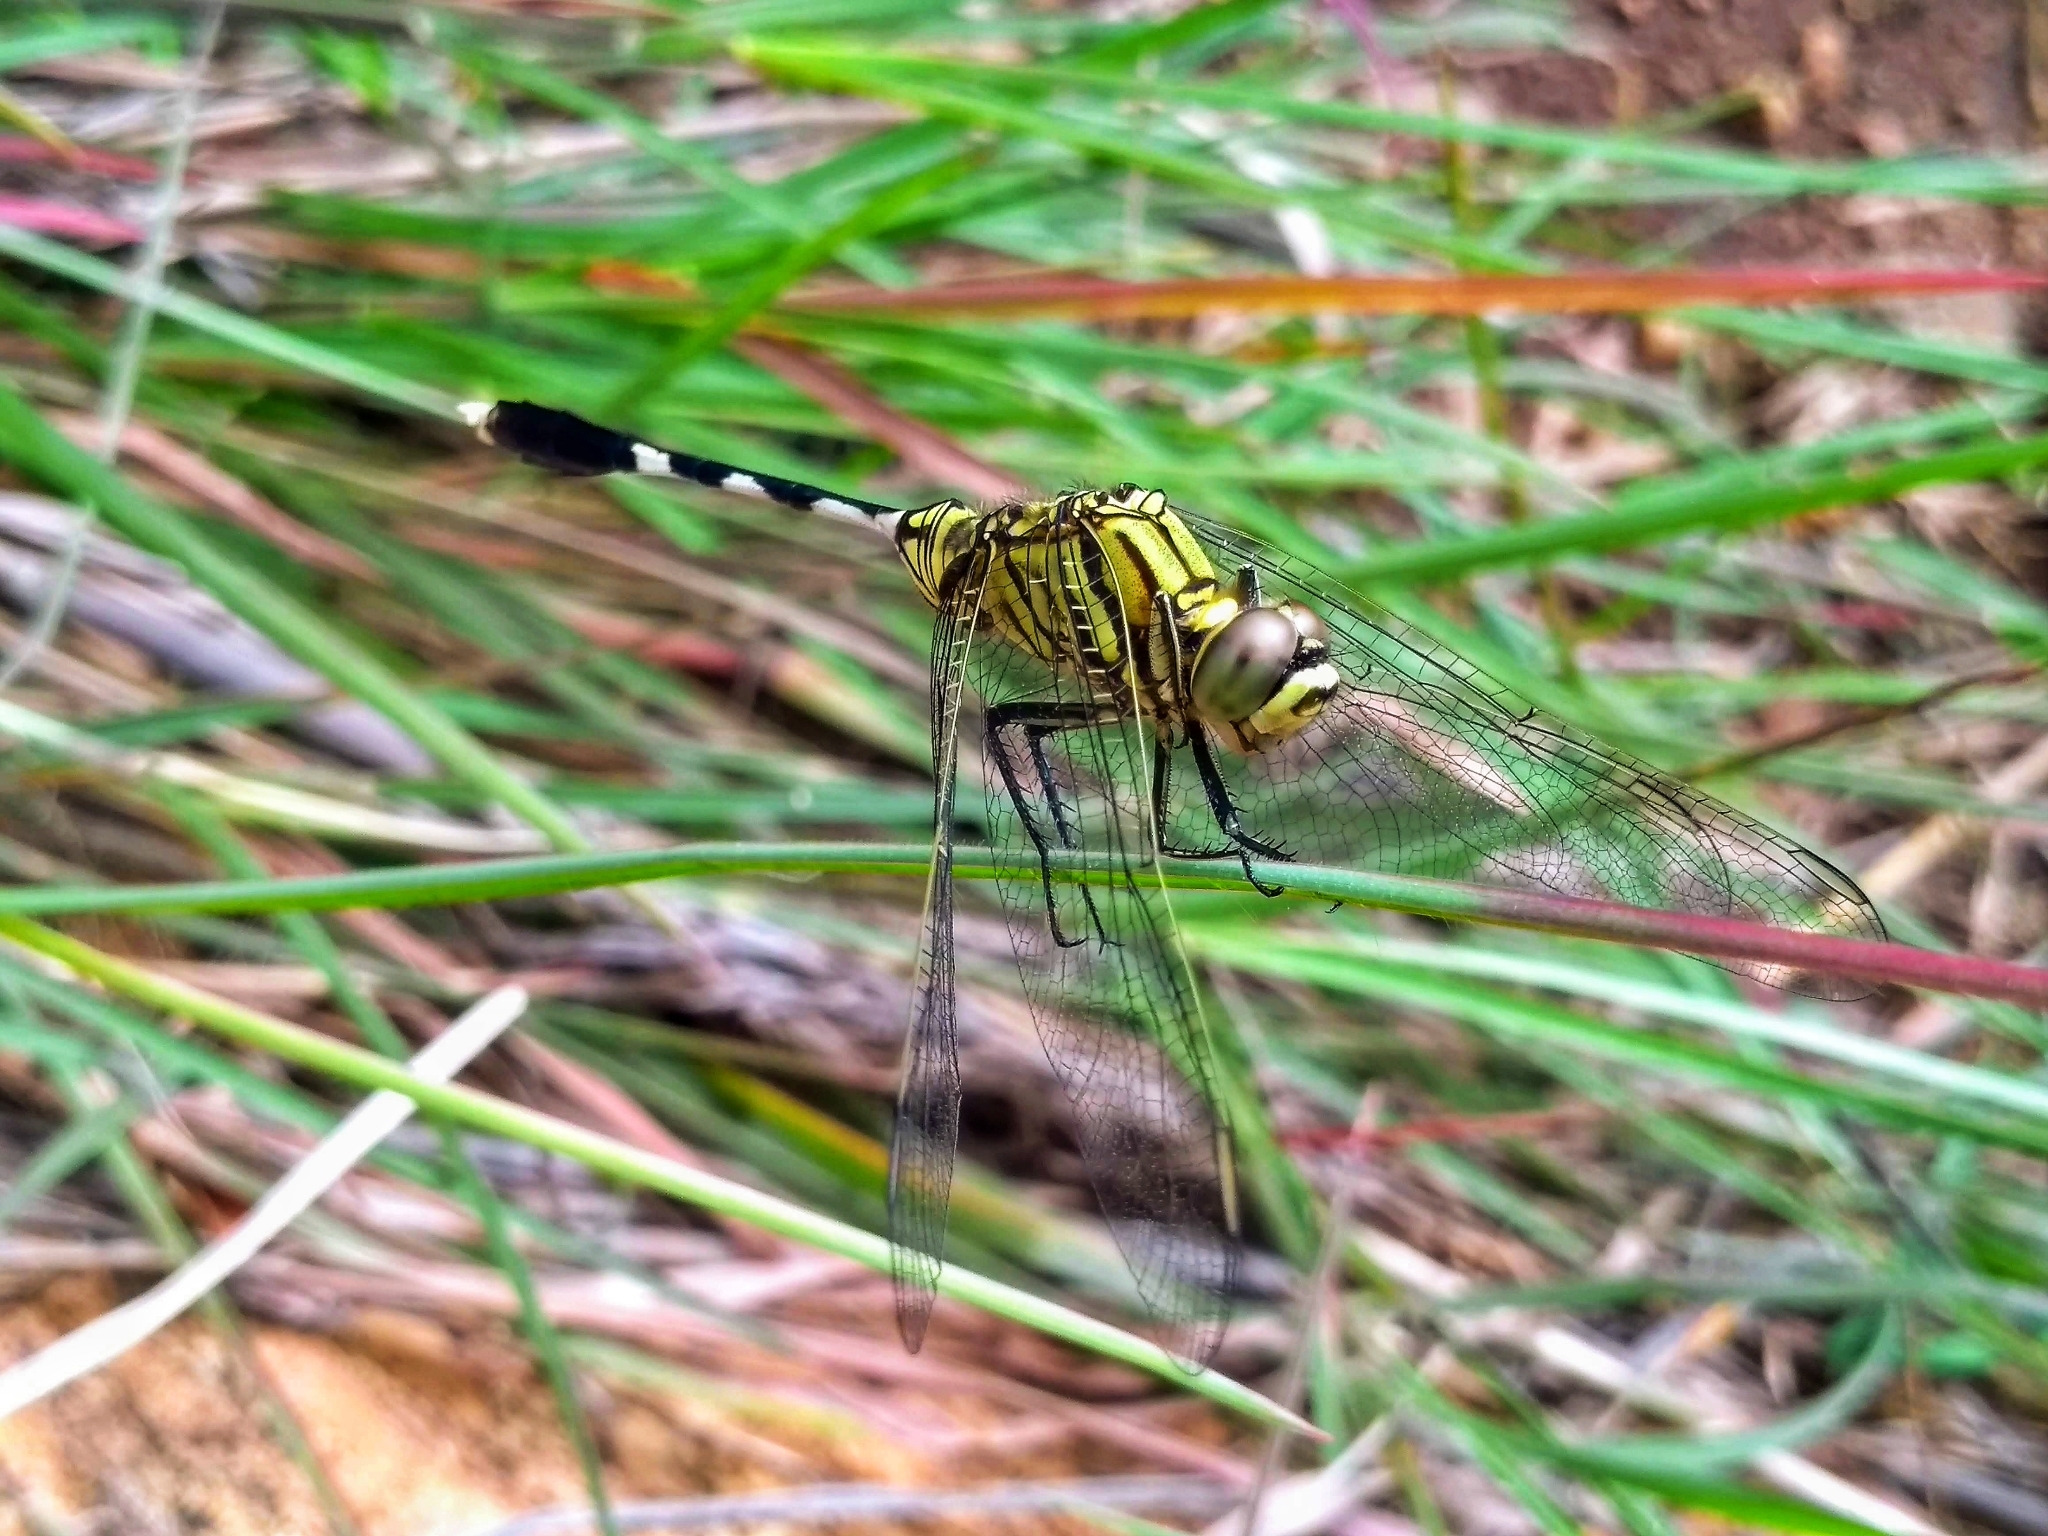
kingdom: Animalia
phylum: Arthropoda
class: Insecta
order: Odonata
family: Libellulidae
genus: Orthetrum
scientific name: Orthetrum sabina
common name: Slender skimmer
